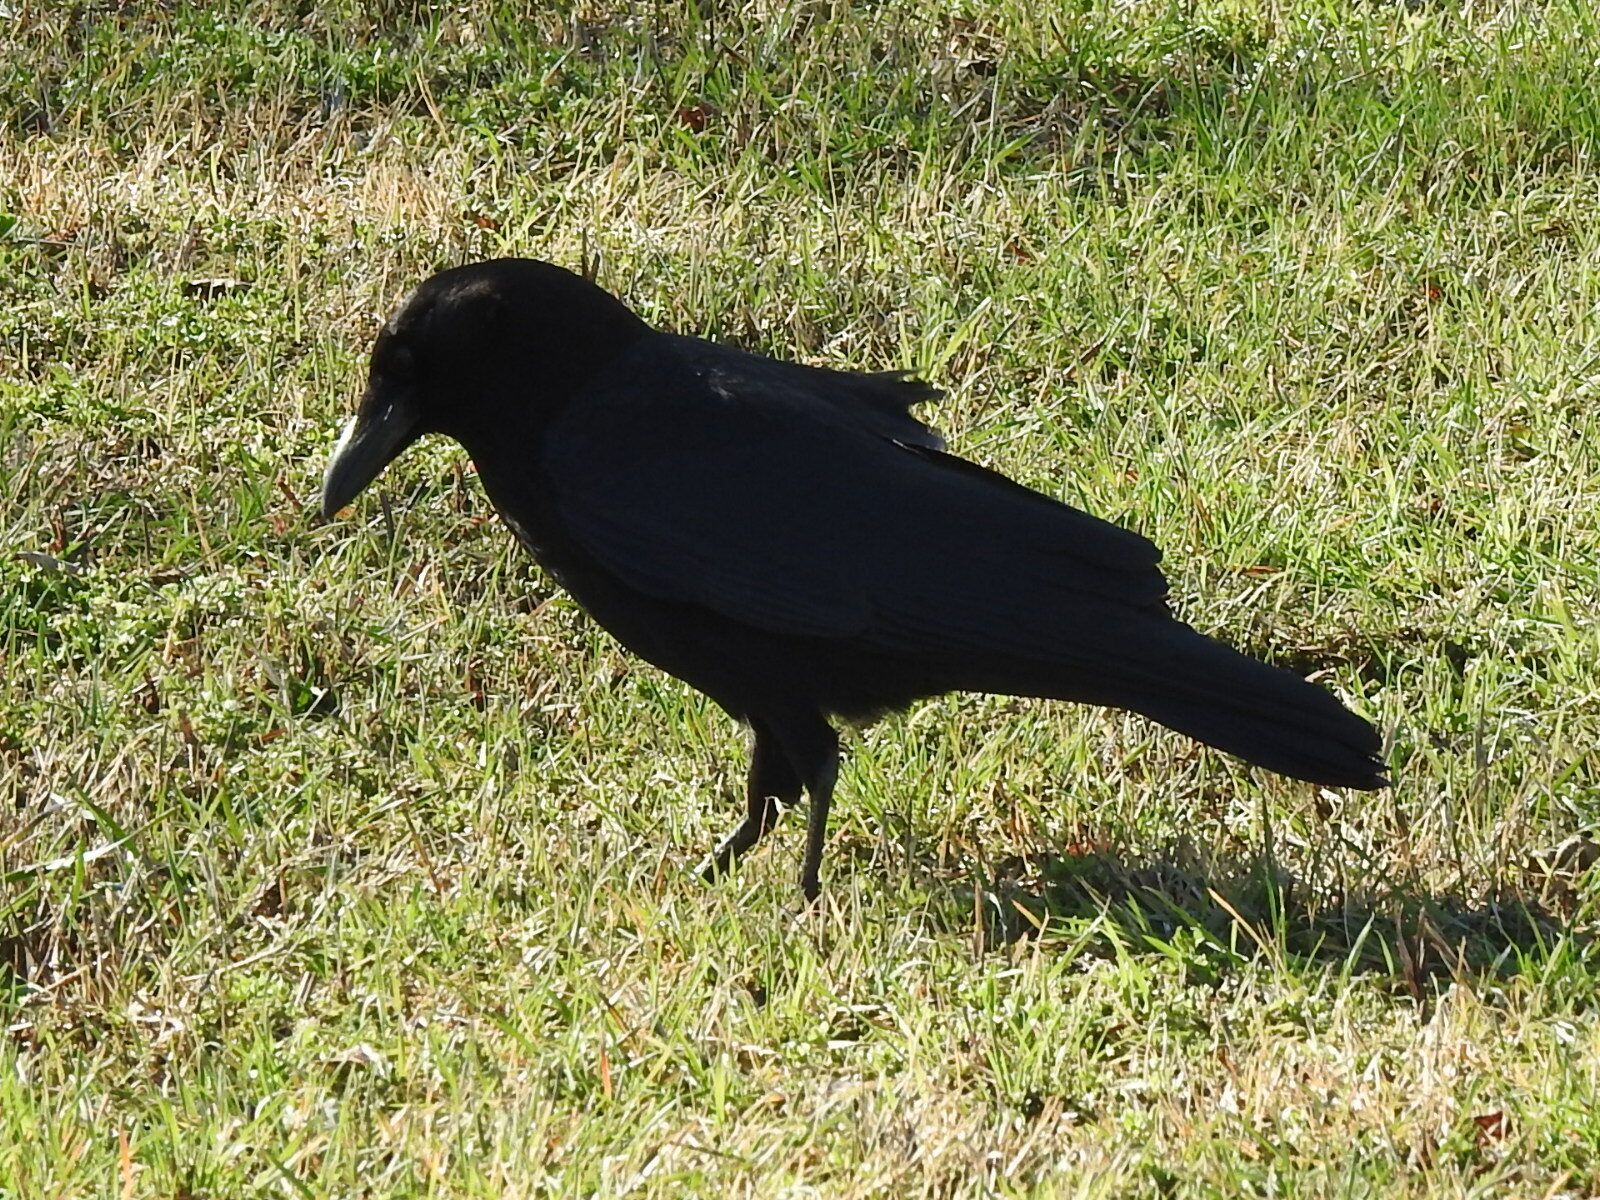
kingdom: Animalia
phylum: Chordata
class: Aves
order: Passeriformes
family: Corvidae
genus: Corvus
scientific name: Corvus brachyrhynchos
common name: American crow
